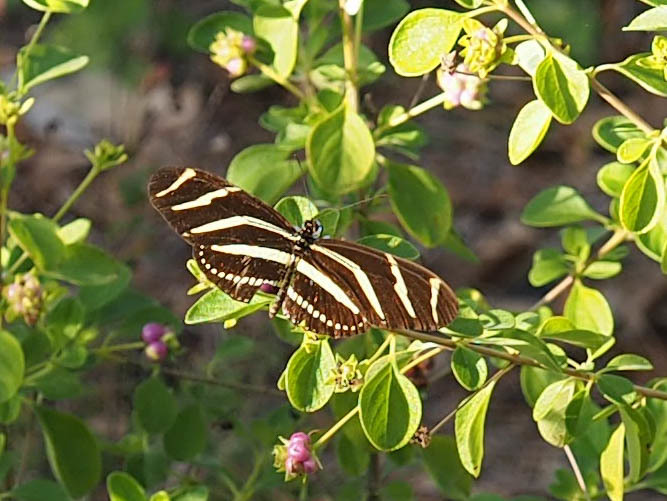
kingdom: Animalia
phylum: Arthropoda
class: Insecta
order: Lepidoptera
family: Nymphalidae
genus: Heliconius
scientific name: Heliconius charithonia
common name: Zebra long wing
